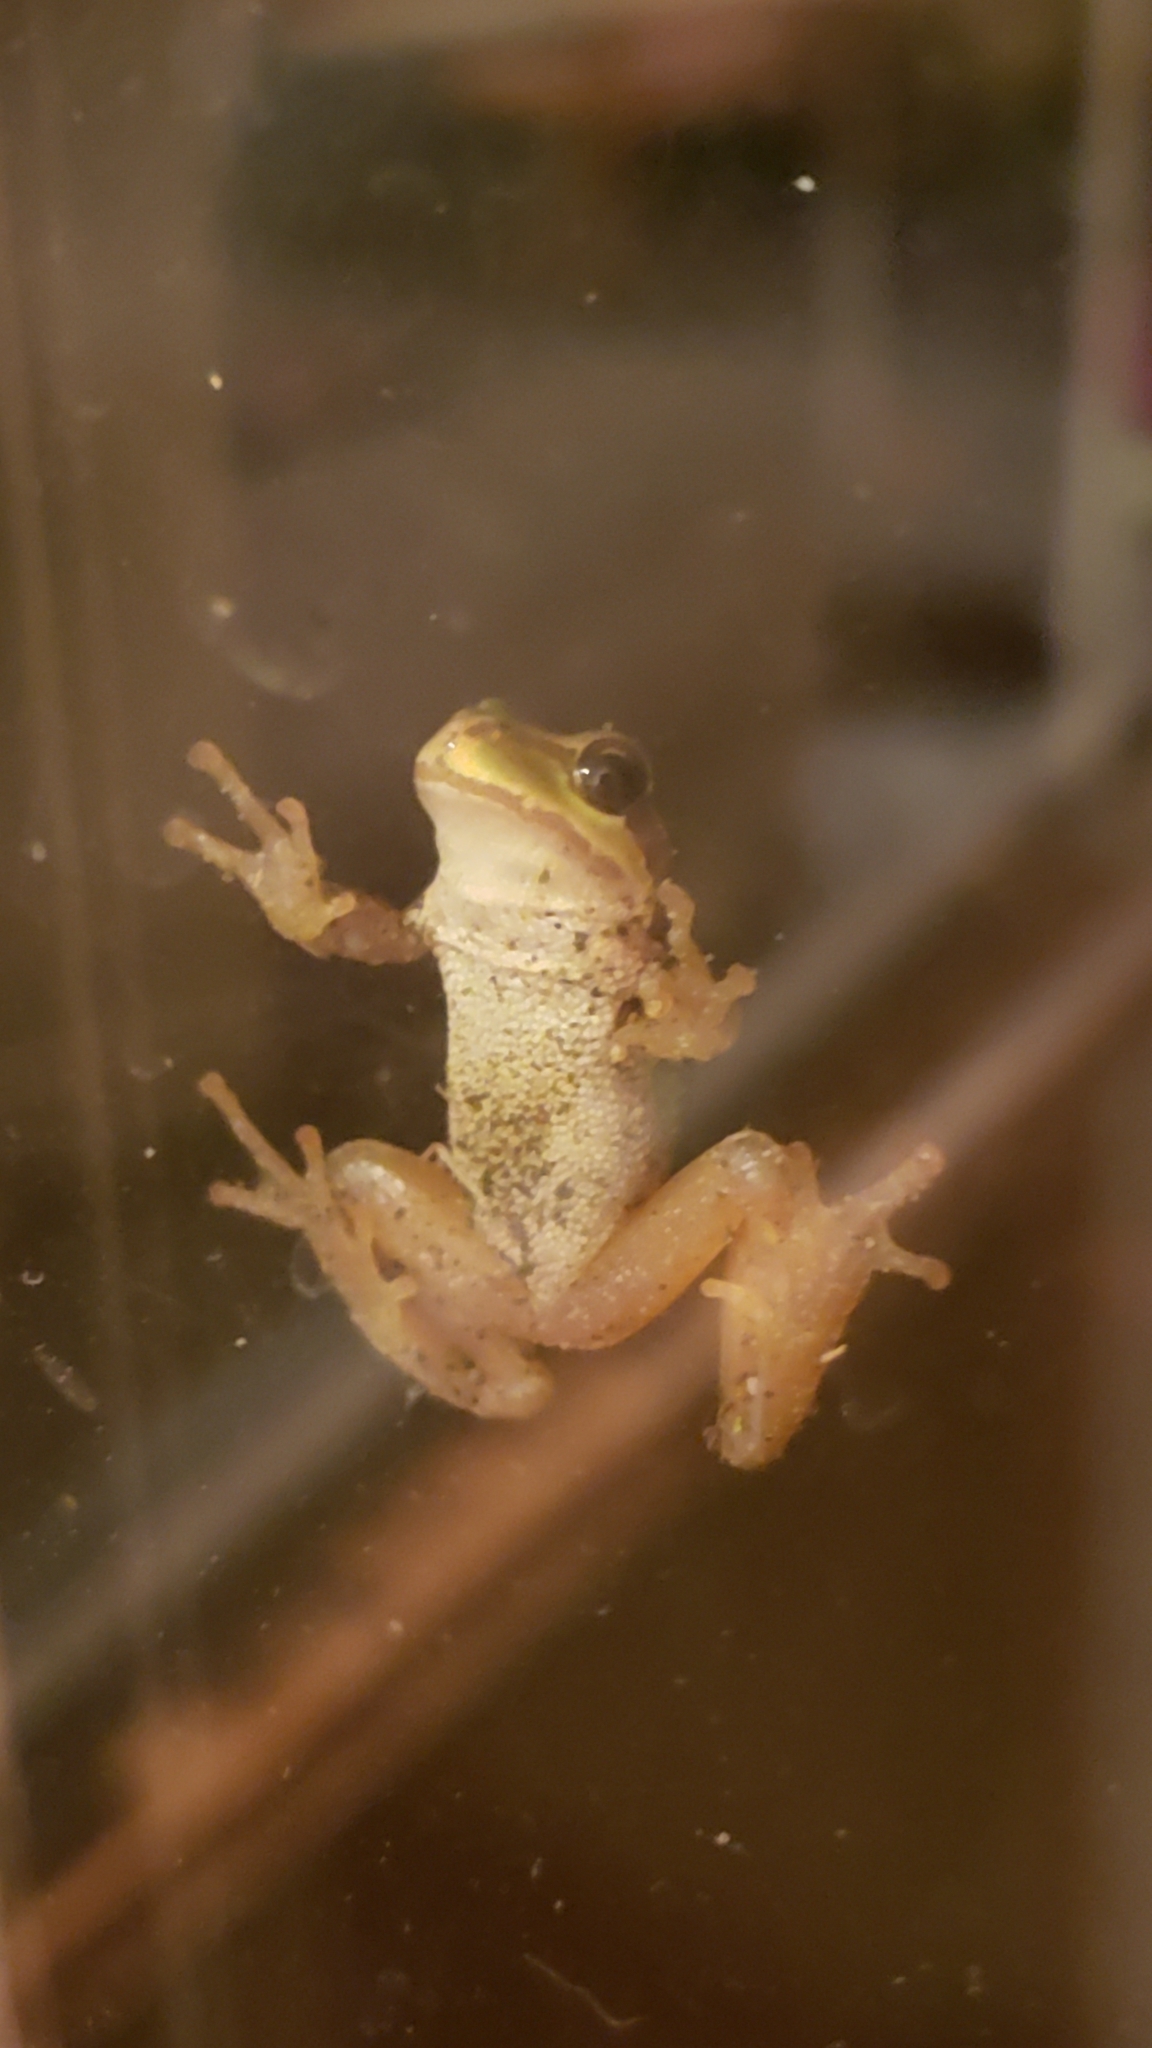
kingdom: Animalia
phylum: Chordata
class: Amphibia
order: Anura
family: Hylidae
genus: Pseudacris
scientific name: Pseudacris regilla
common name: Pacific chorus frog
